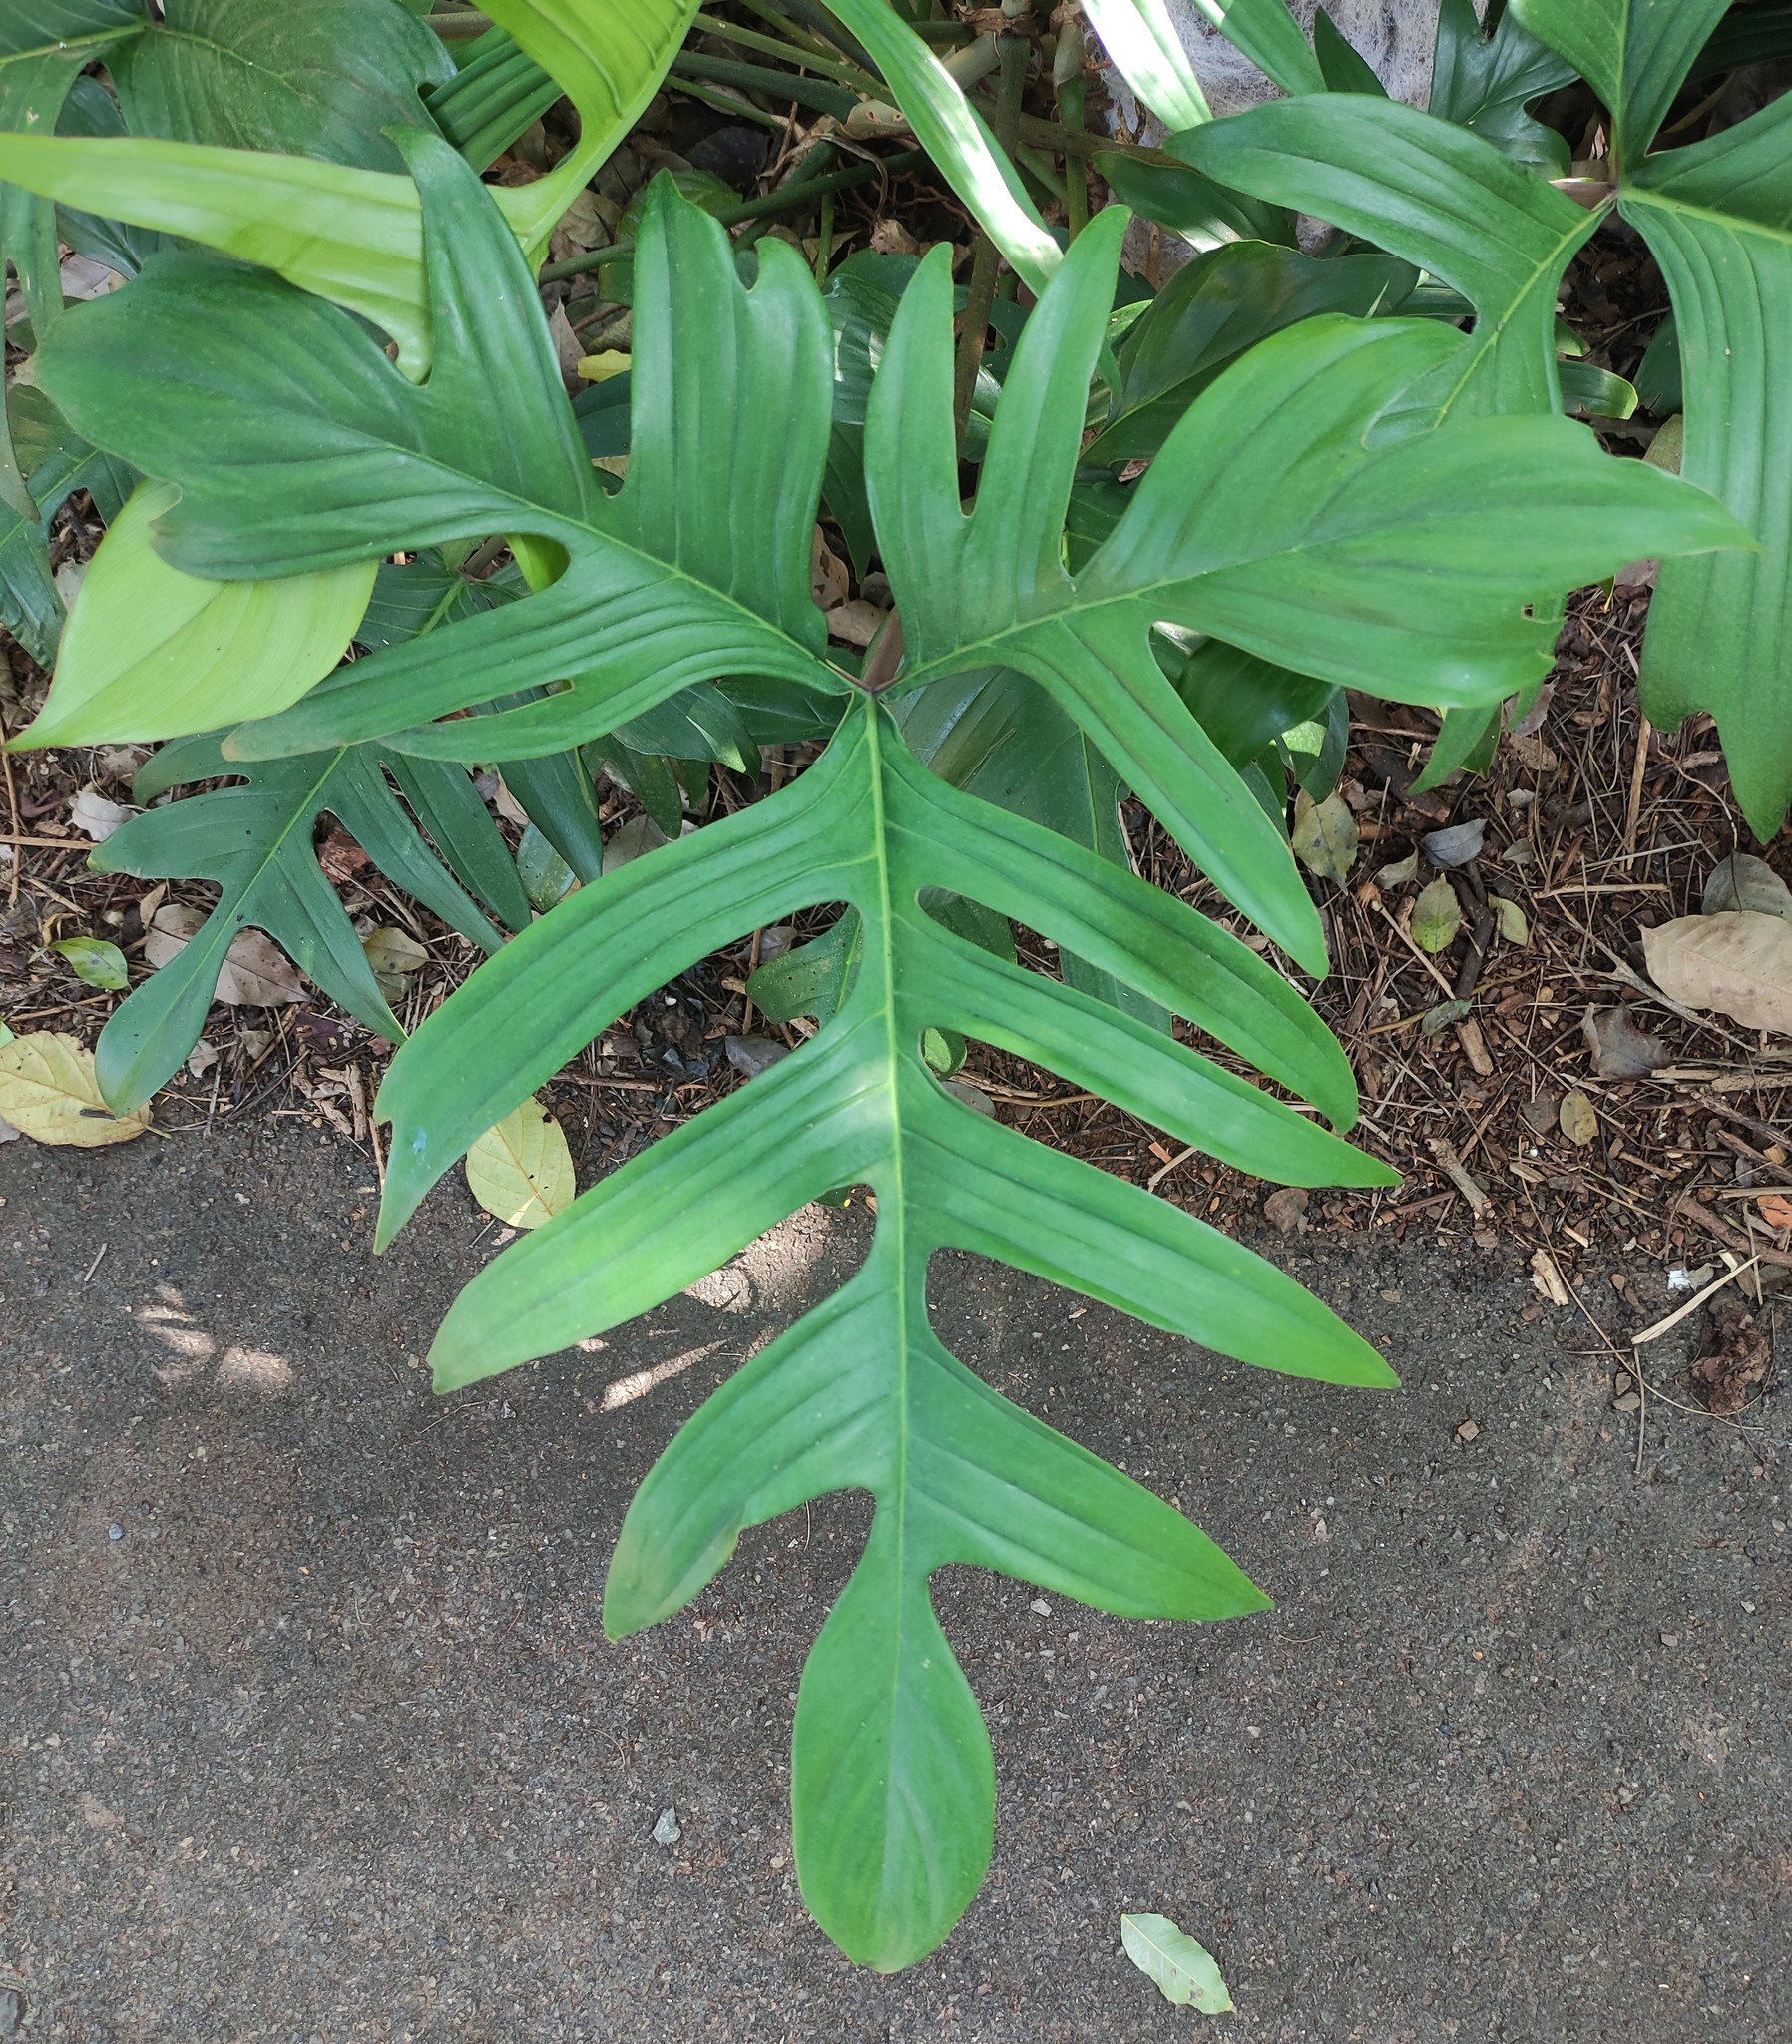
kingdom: Plantae
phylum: Tracheophyta
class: Liliopsida
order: Alismatales
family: Araceae
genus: Philodendron
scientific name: Philodendron pedatum
